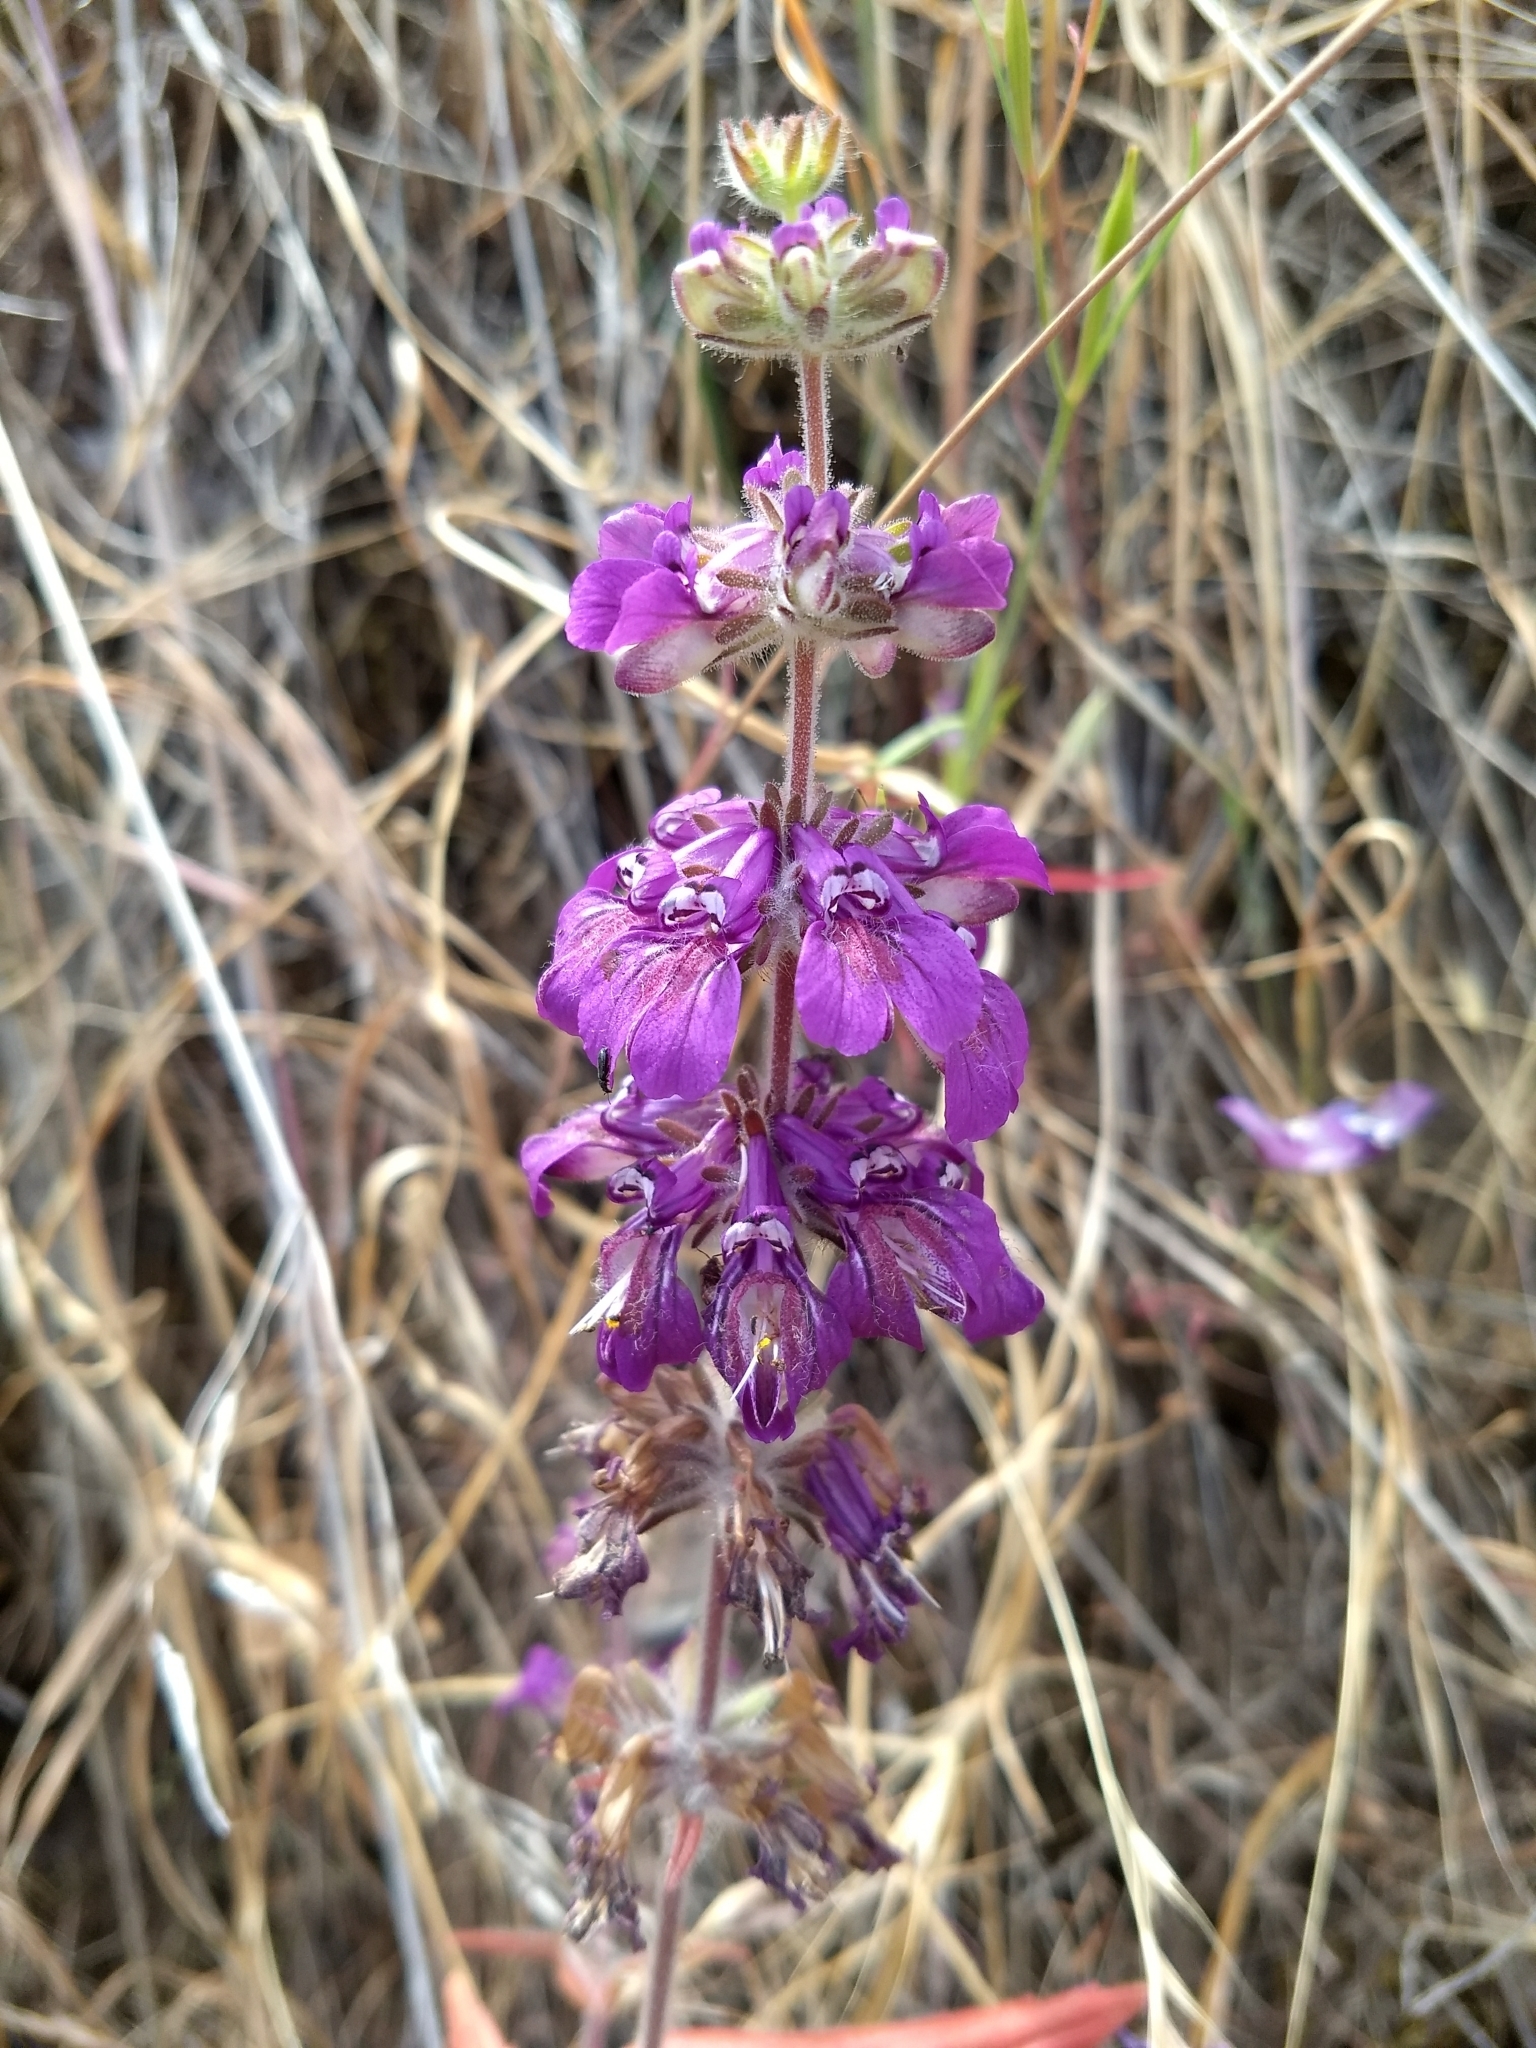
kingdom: Plantae
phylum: Tracheophyta
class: Magnoliopsida
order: Lamiales
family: Plantaginaceae
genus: Collinsia
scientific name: Collinsia heterophylla
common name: Chinese-houses
